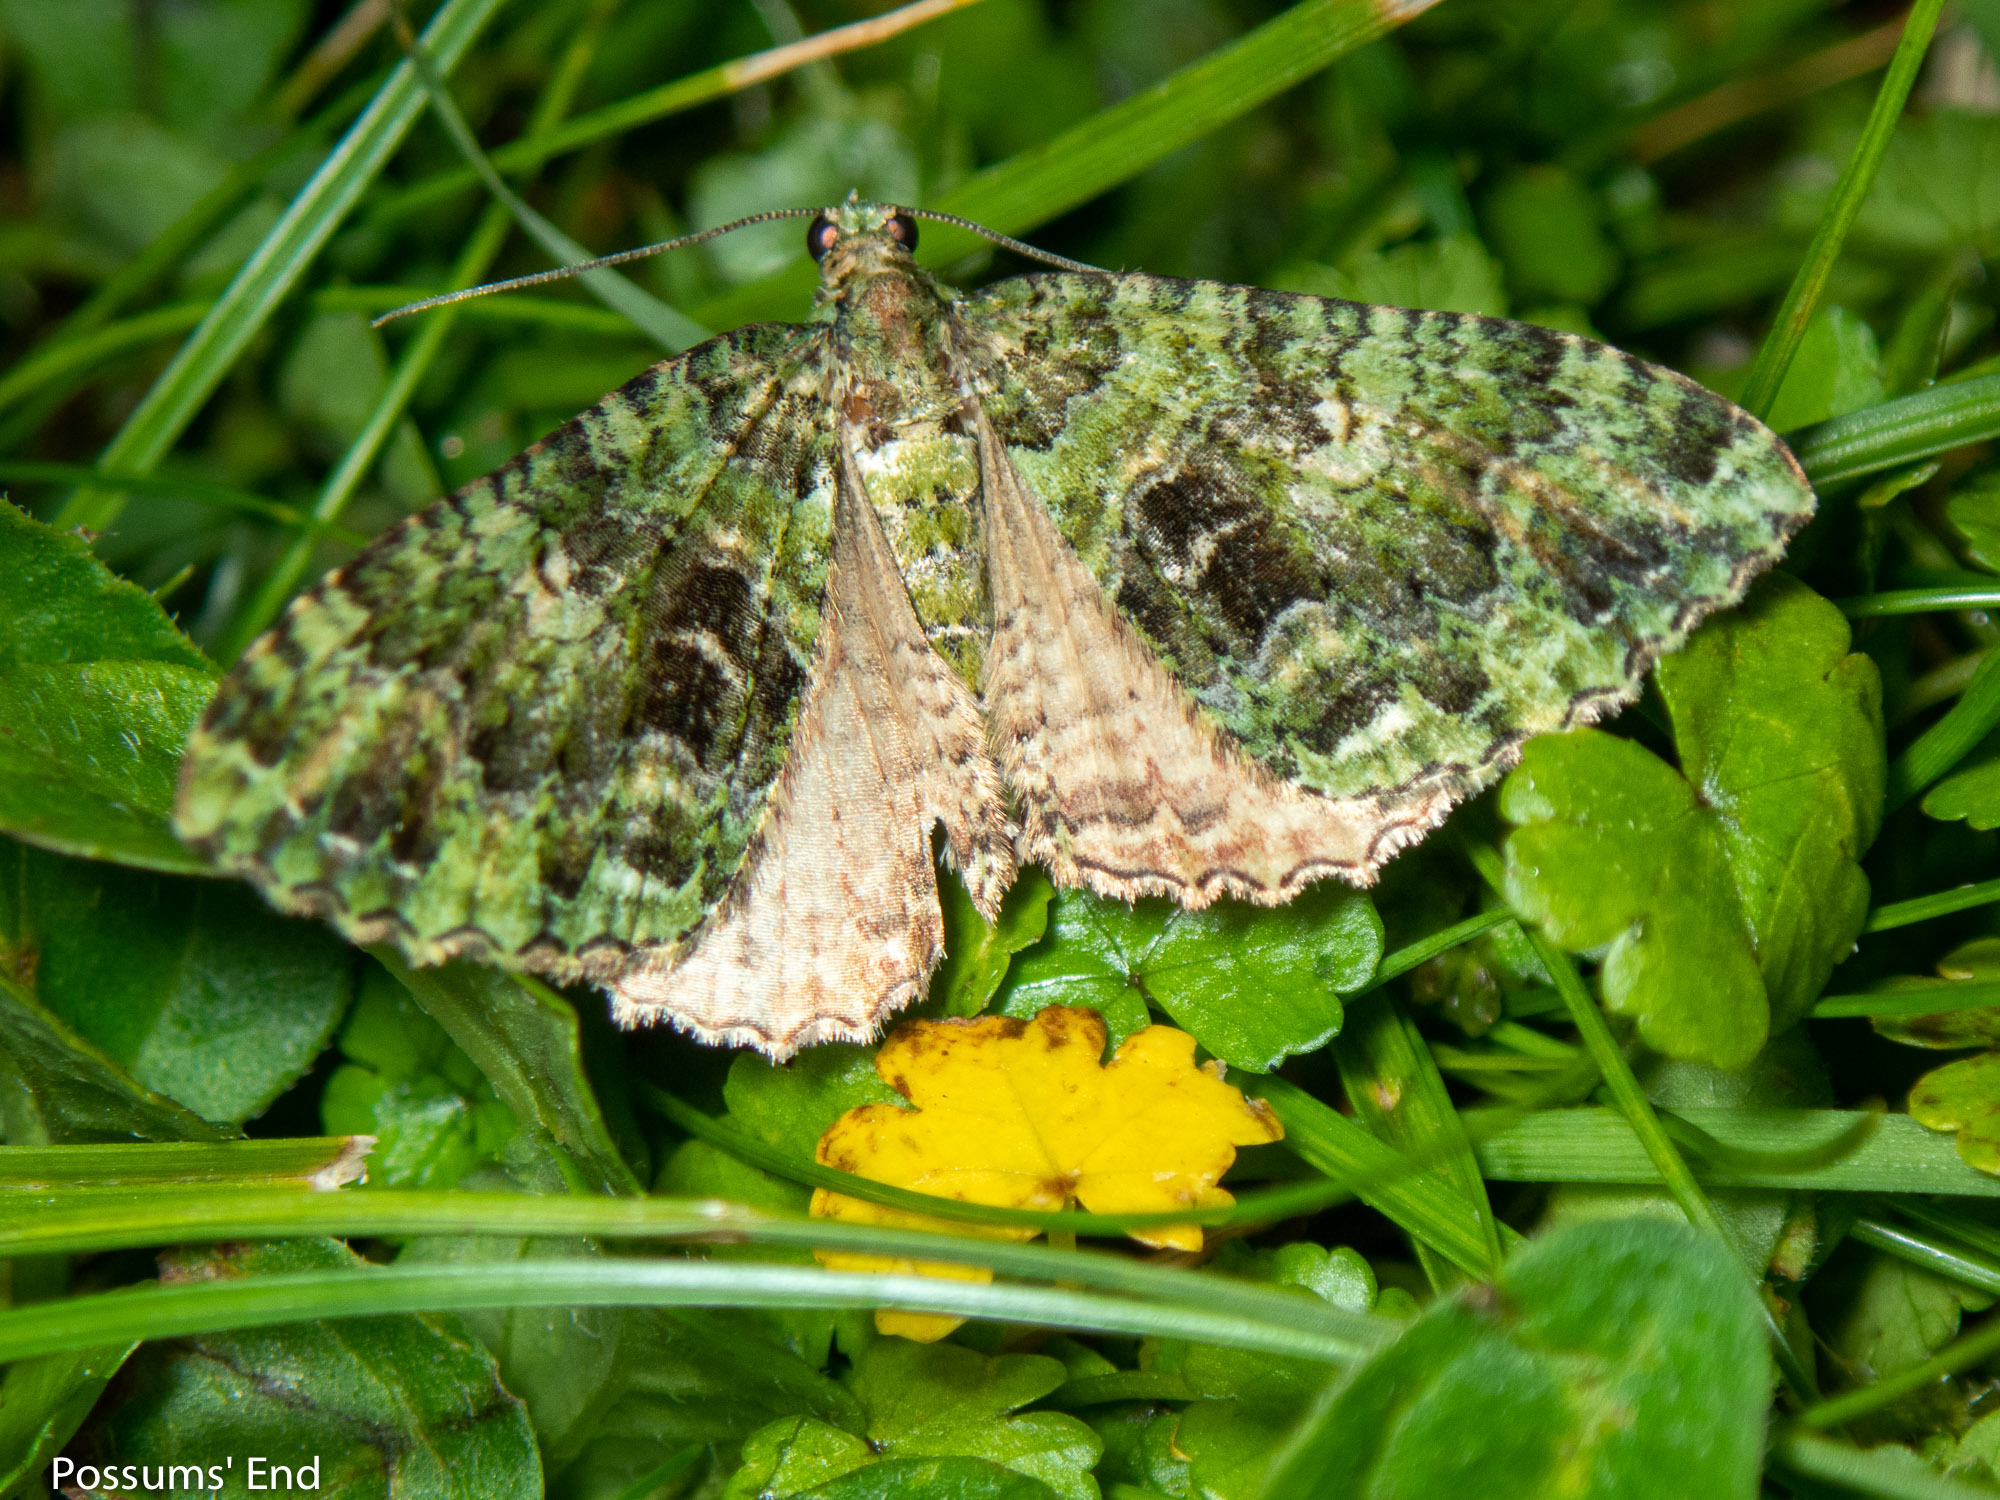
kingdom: Animalia
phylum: Arthropoda
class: Insecta
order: Lepidoptera
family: Geometridae
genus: Austrocidaria
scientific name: Austrocidaria similata
